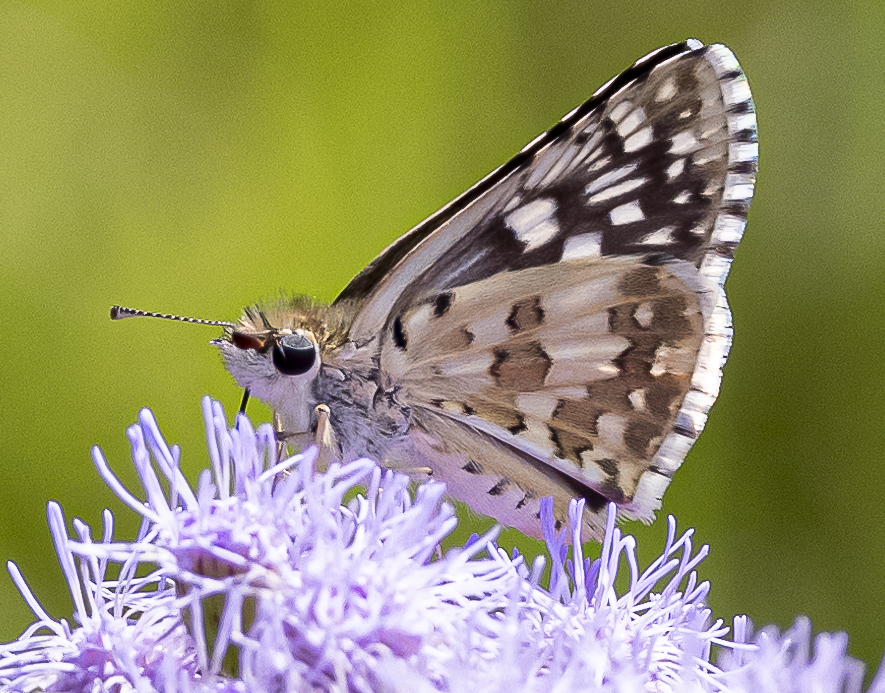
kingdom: Animalia
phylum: Arthropoda
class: Insecta
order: Lepidoptera
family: Hesperiidae
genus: Burnsius
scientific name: Burnsius communis
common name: Common checkered-skipper
